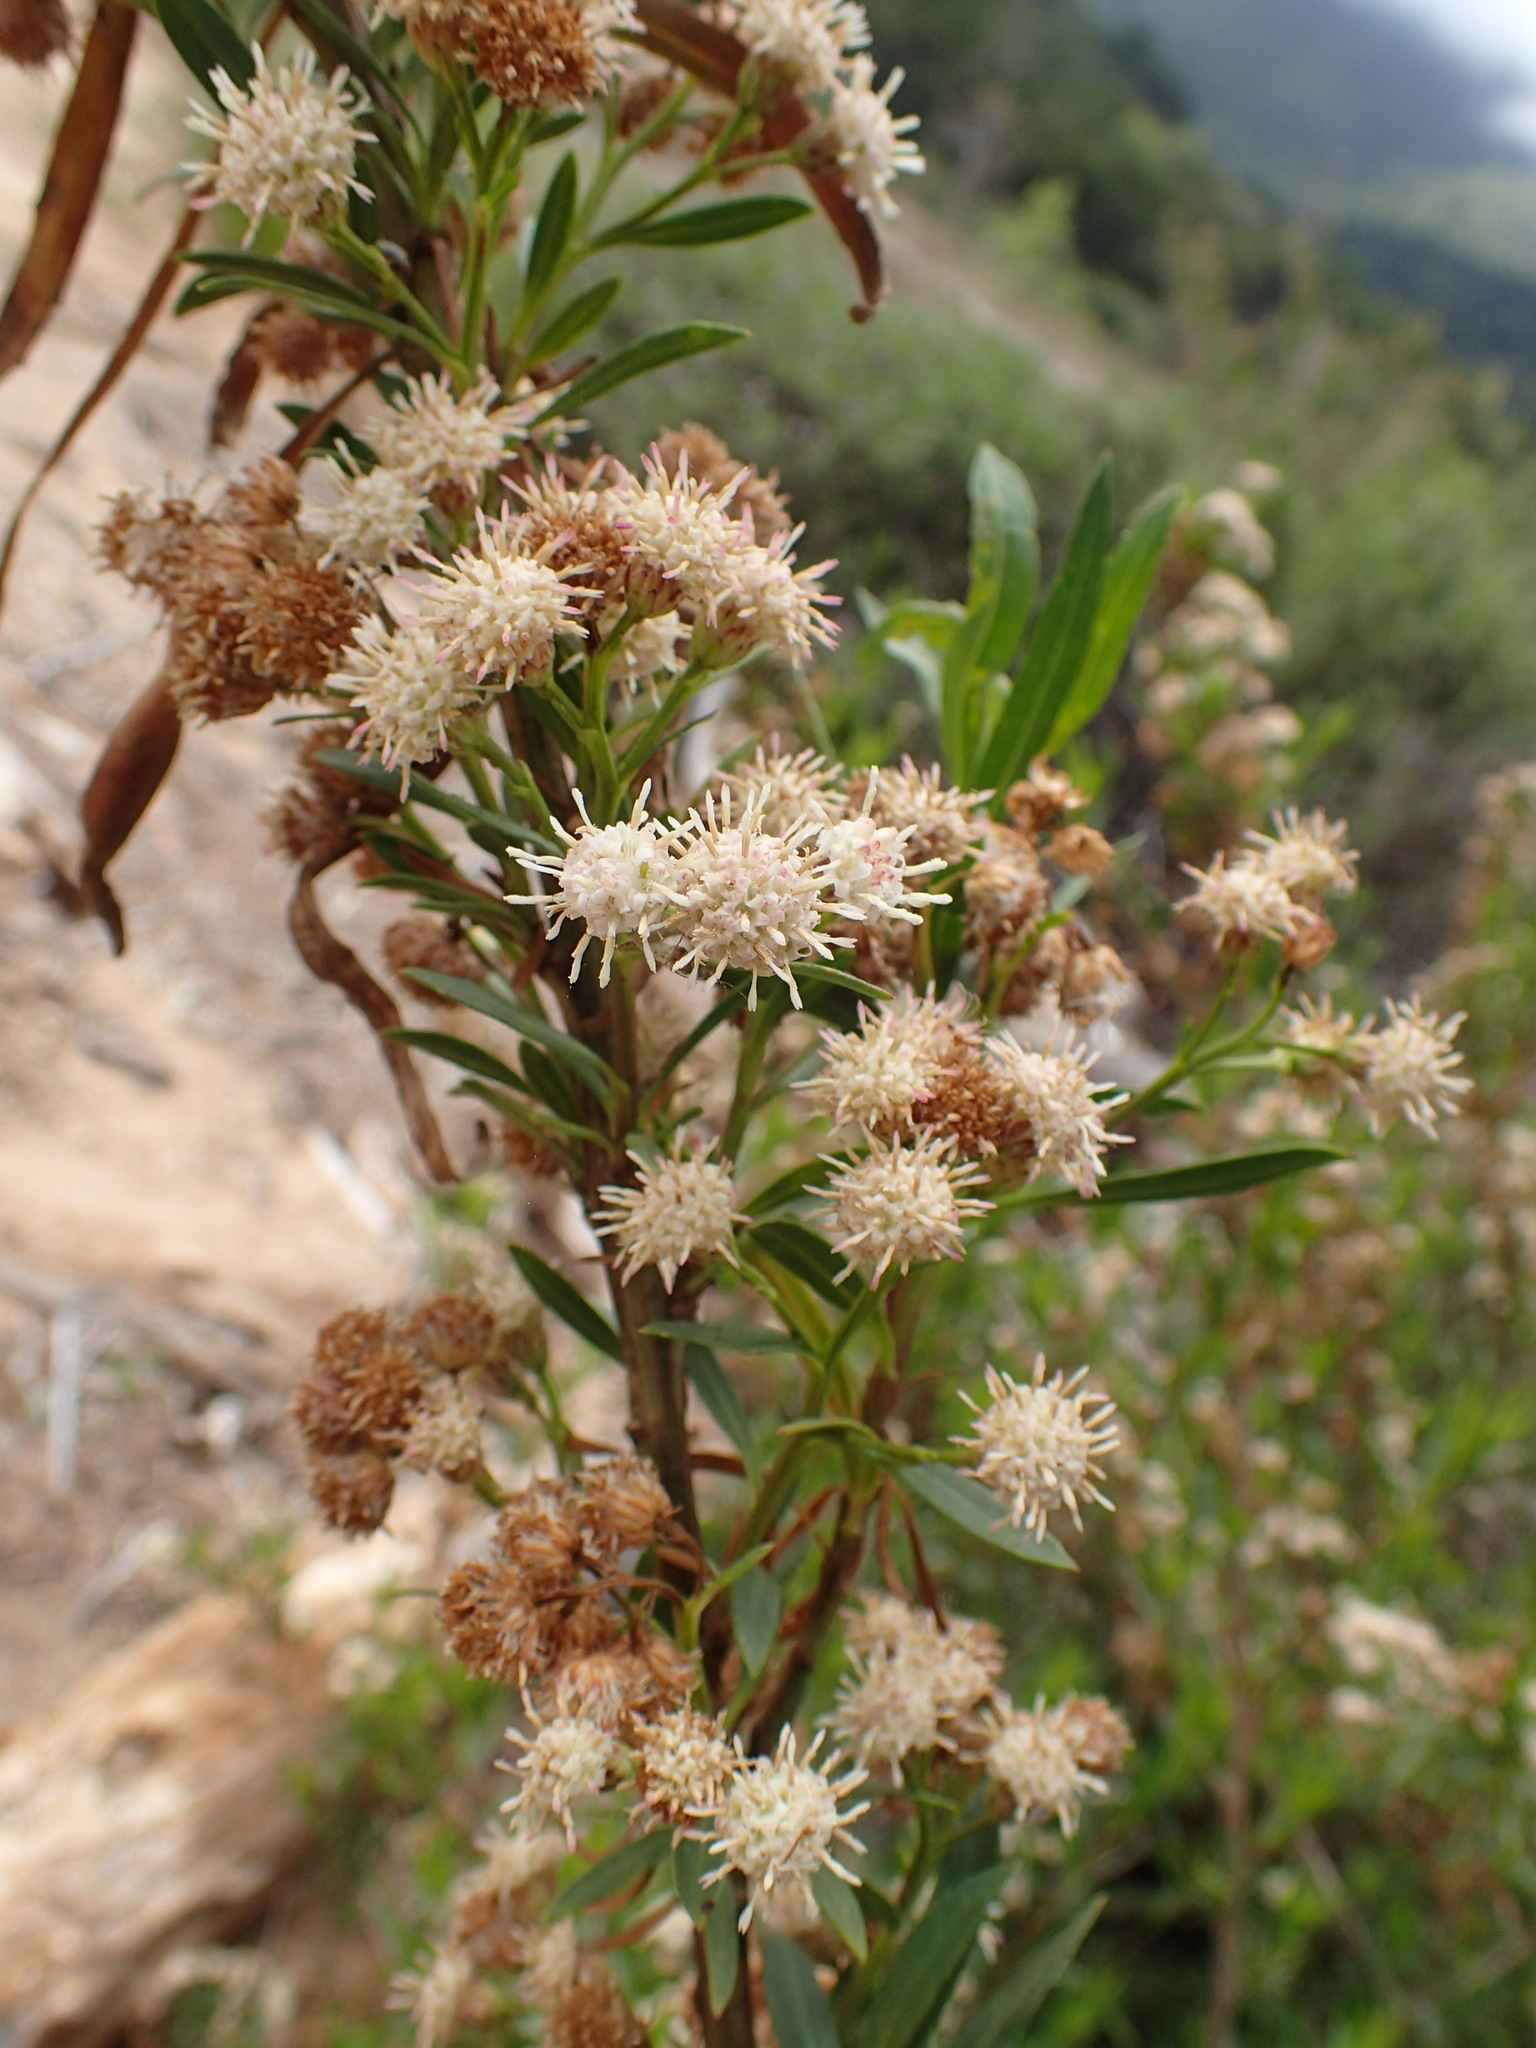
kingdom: Plantae
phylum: Tracheophyta
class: Magnoliopsida
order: Asterales
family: Asteraceae
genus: Baccharis
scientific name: Baccharis salicifolia
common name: Sticky baccharis
